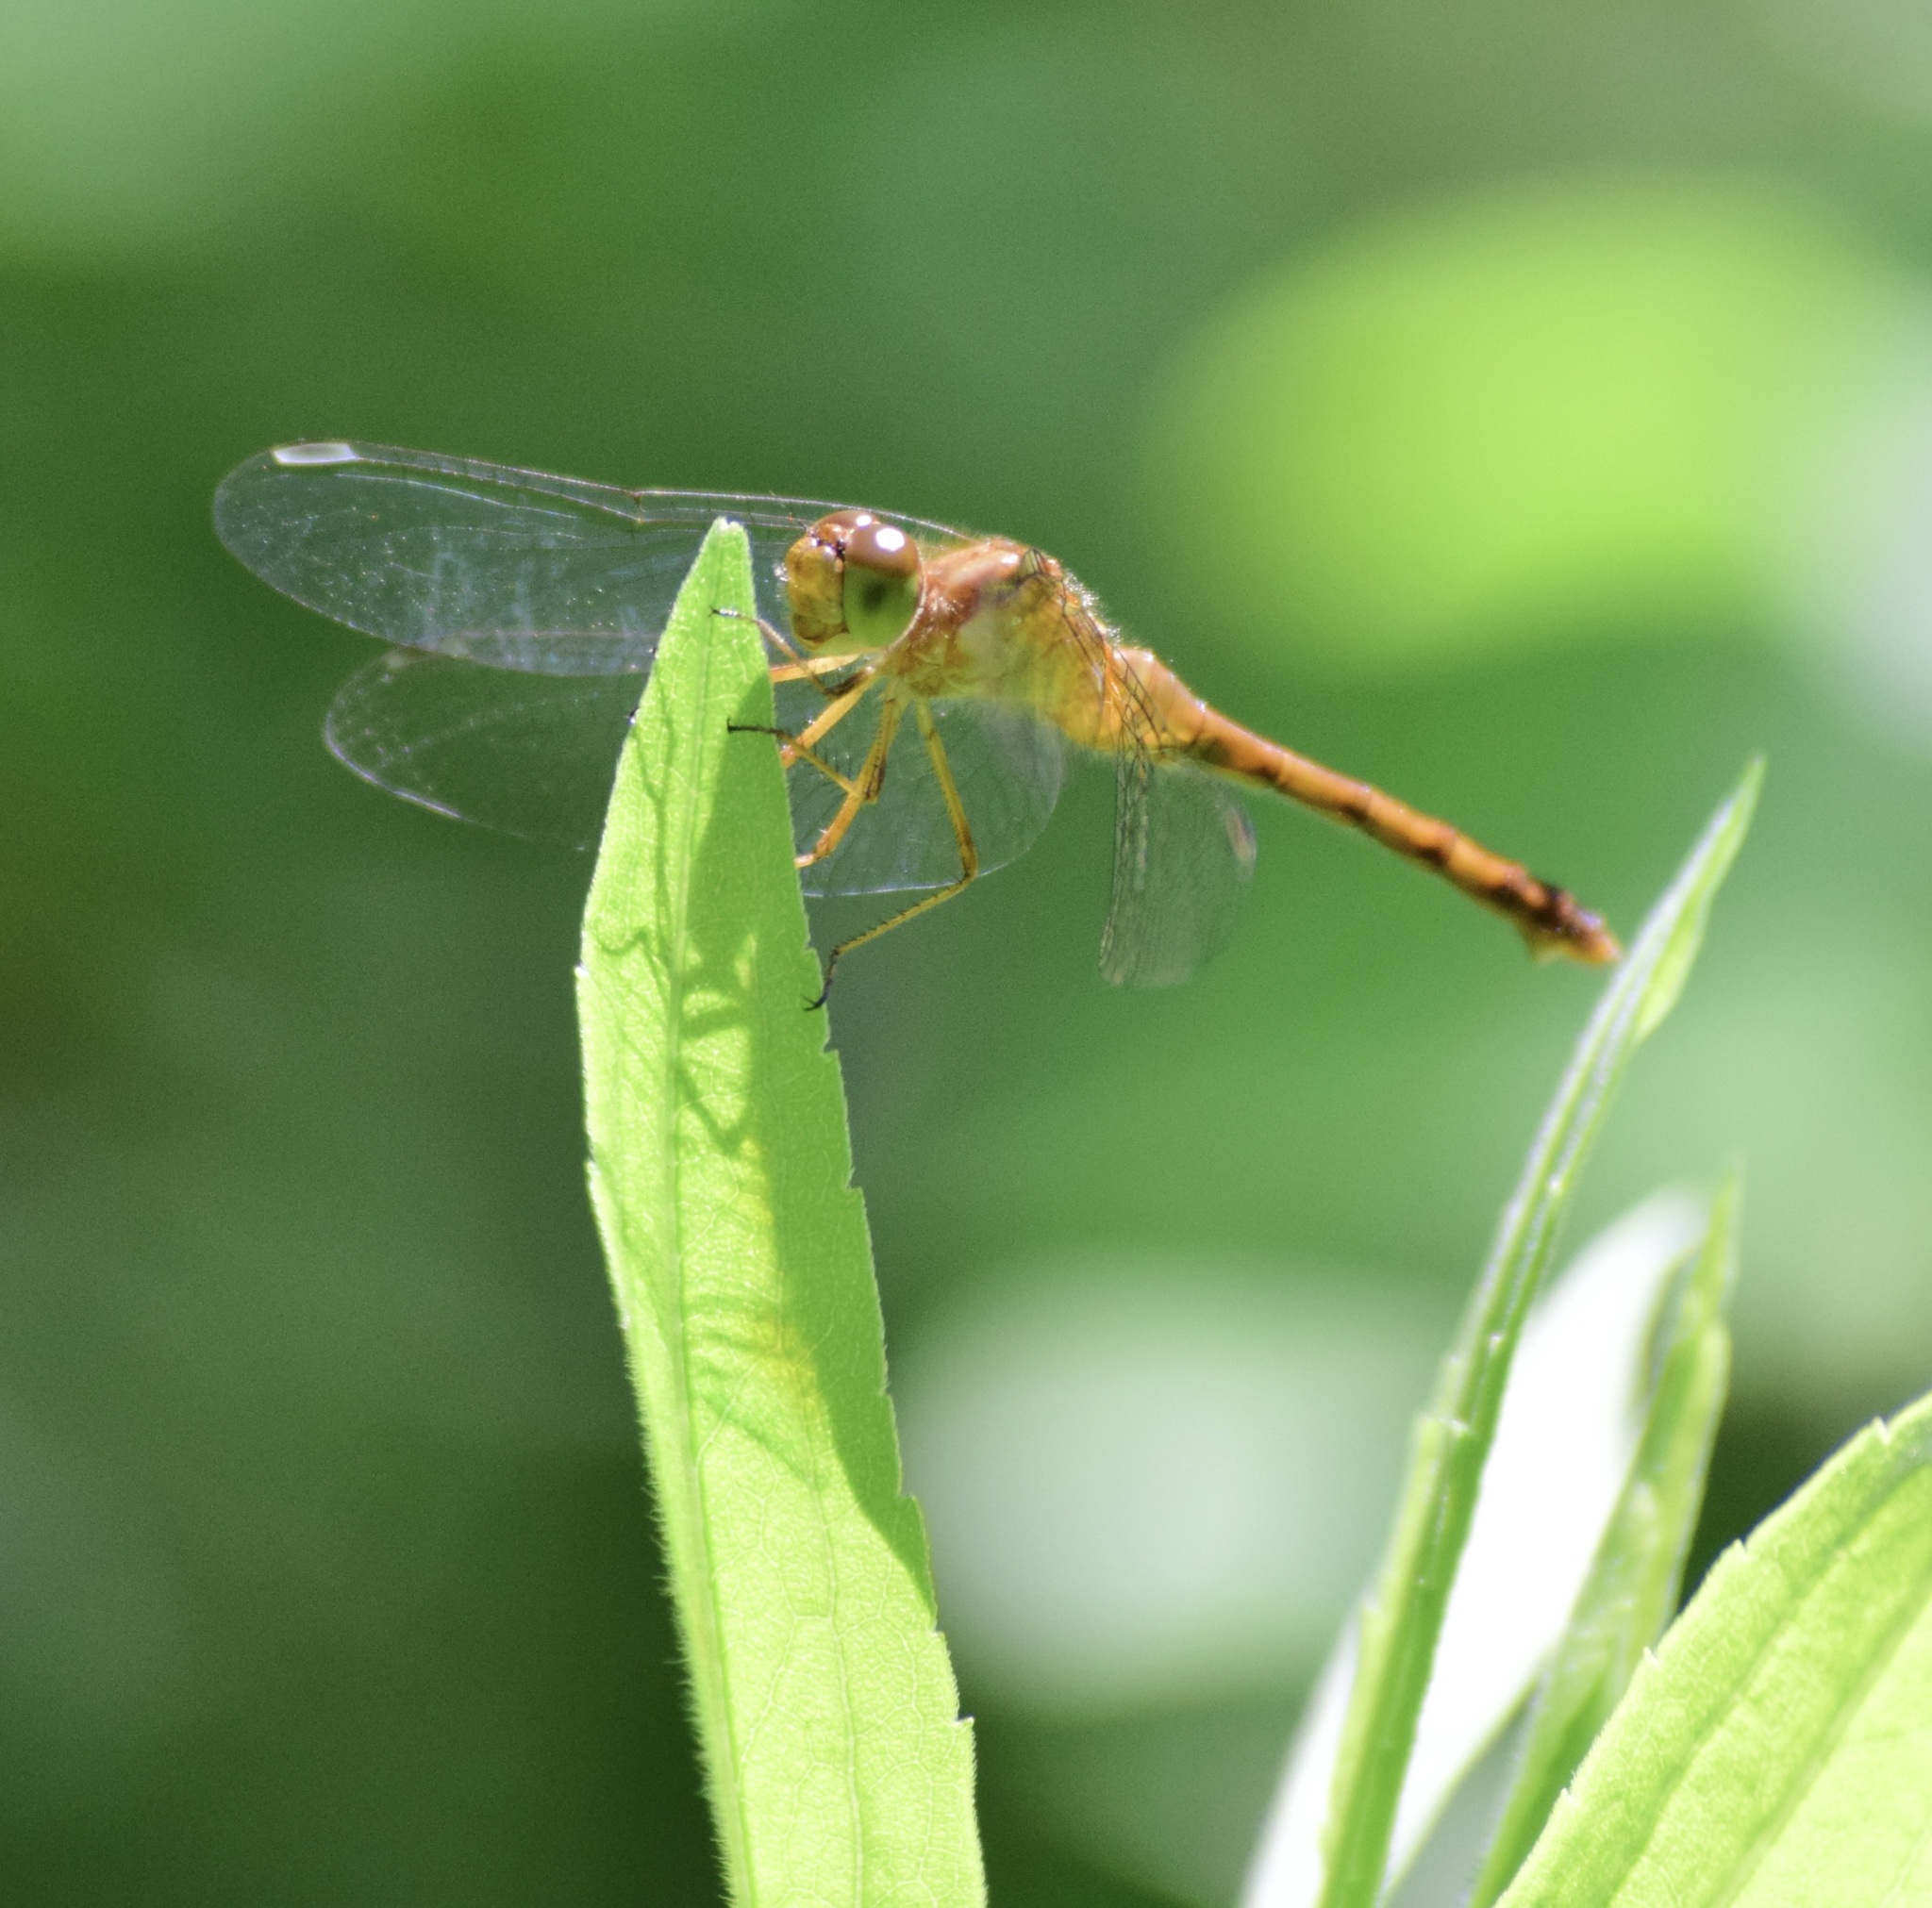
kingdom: Animalia
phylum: Arthropoda
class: Insecta
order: Odonata
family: Libellulidae
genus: Sympetrum
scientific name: Sympetrum vicinum
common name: Autumn meadowhawk
